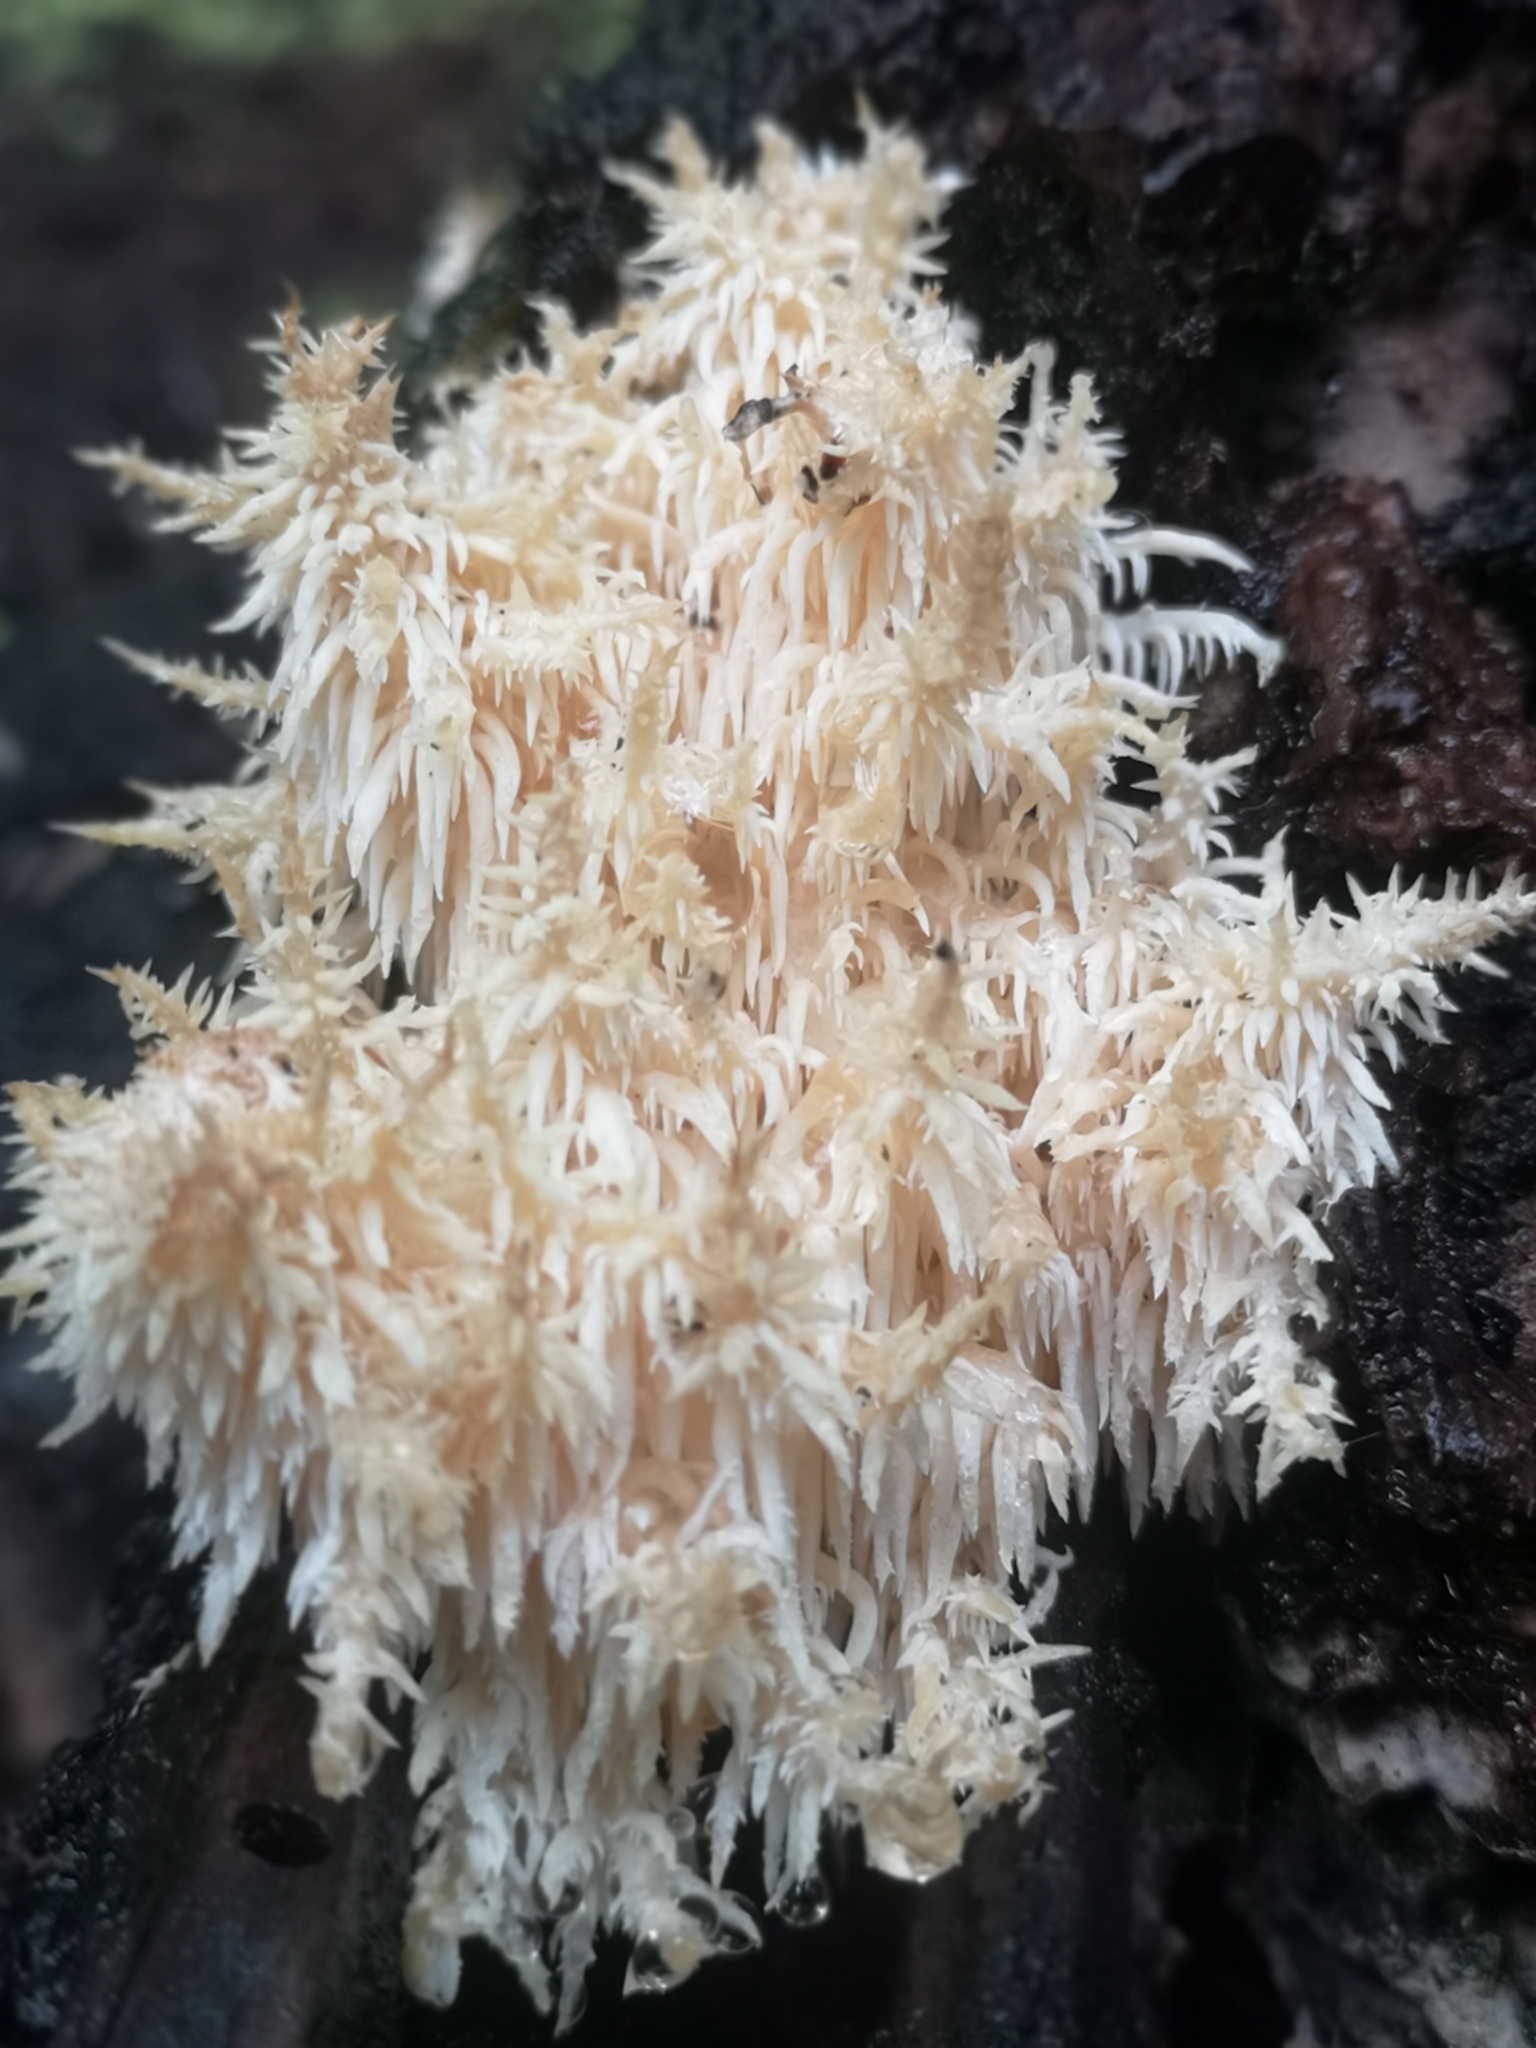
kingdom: Fungi
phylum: Basidiomycota
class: Agaricomycetes
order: Russulales
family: Hericiaceae
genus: Hericium
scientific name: Hericium novae-zealandiae
